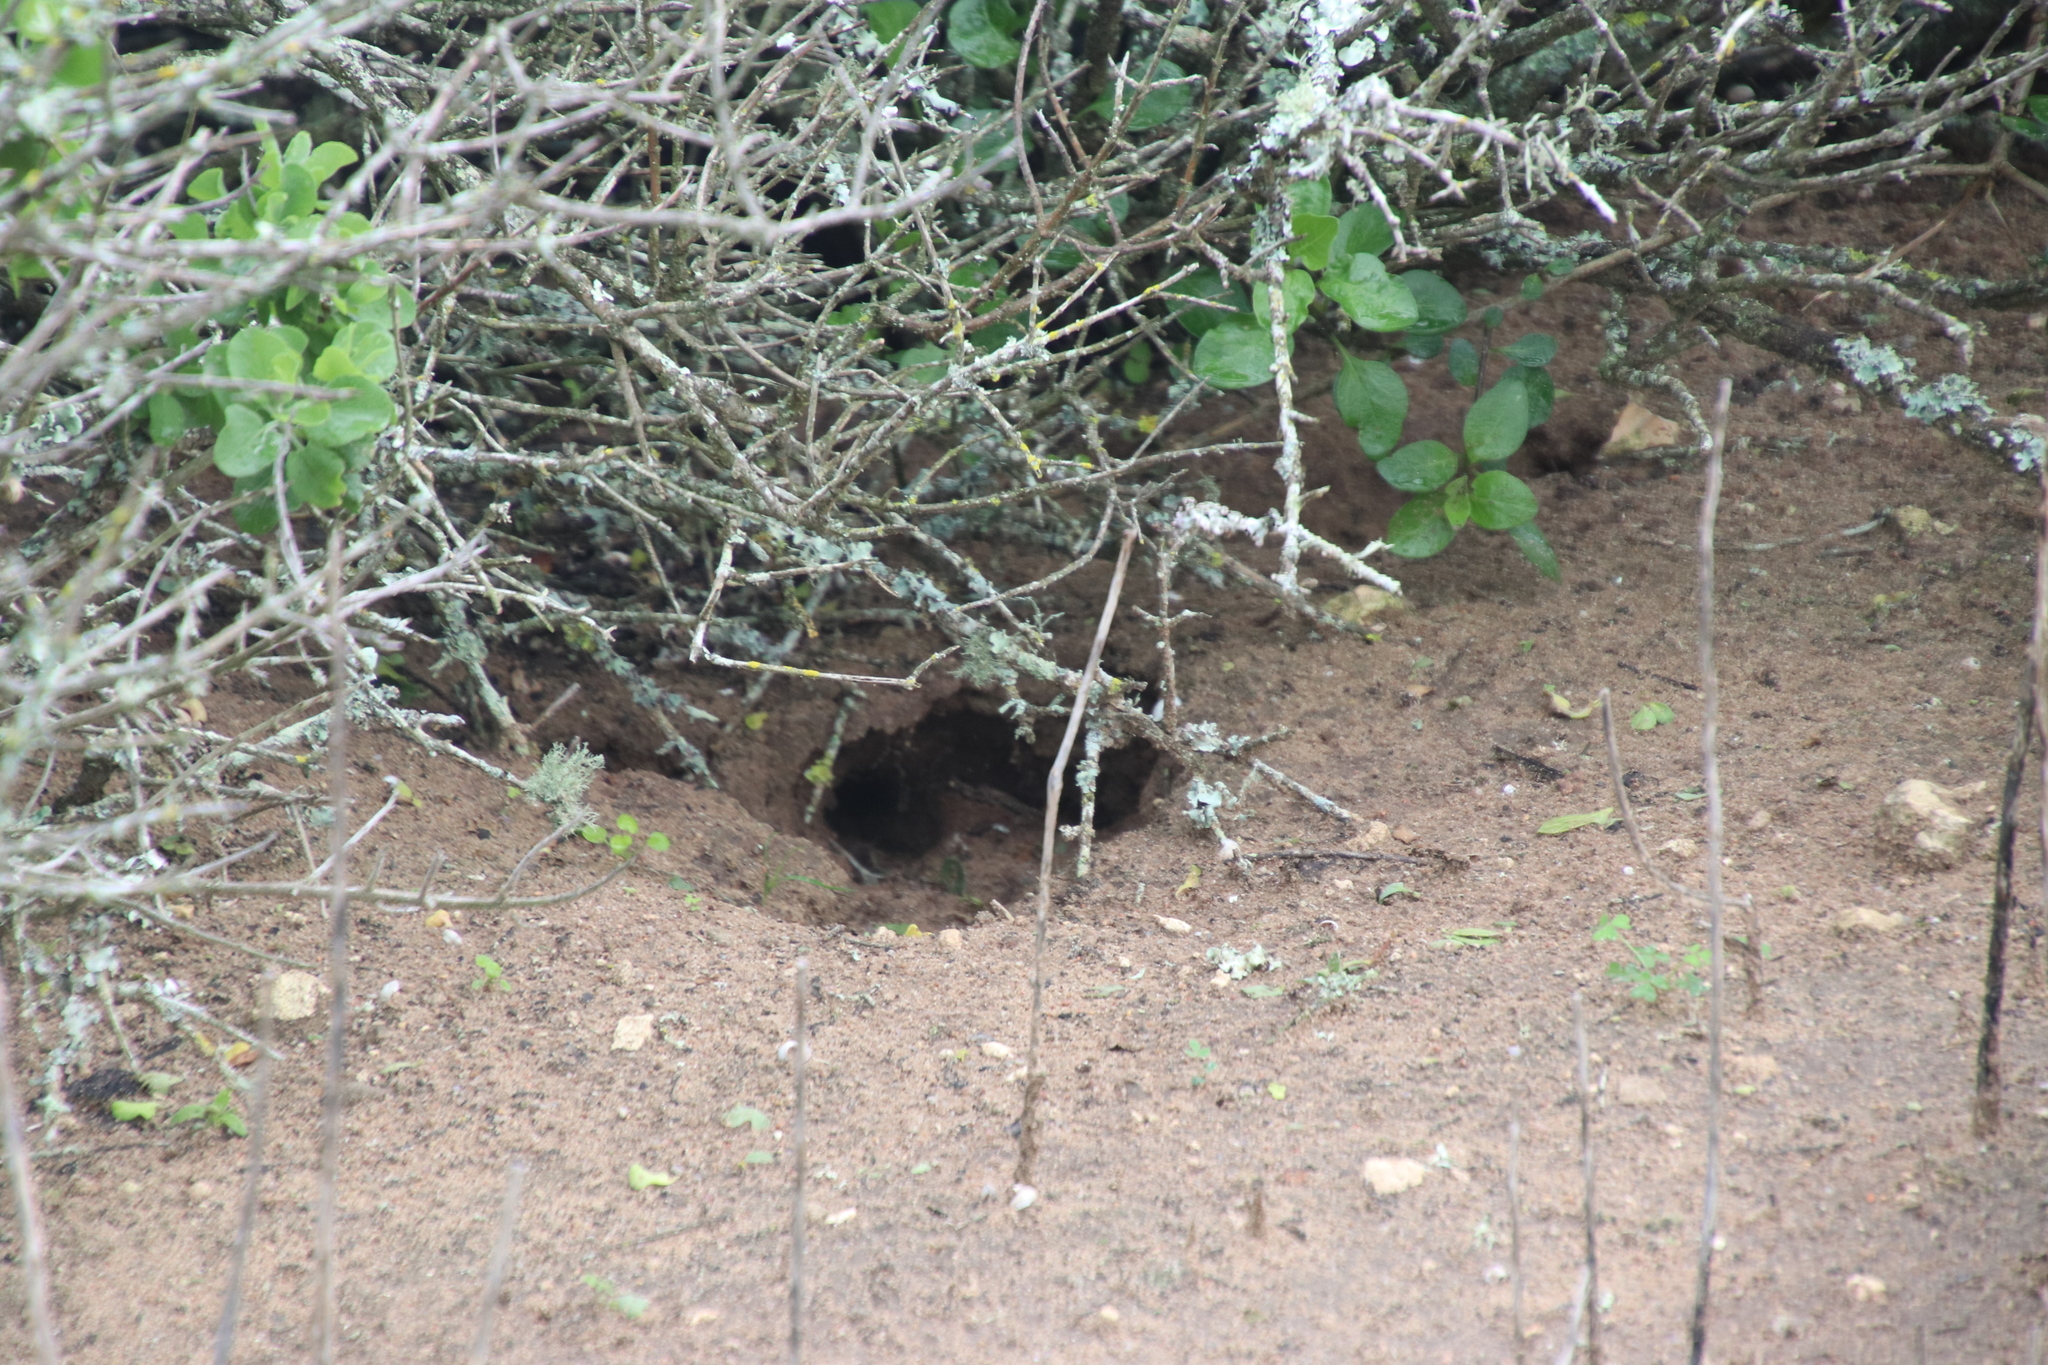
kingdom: Animalia
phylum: Arthropoda
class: Insecta
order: Blattodea
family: Hodotermitidae
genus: Microhodotermes
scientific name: Microhodotermes viator
